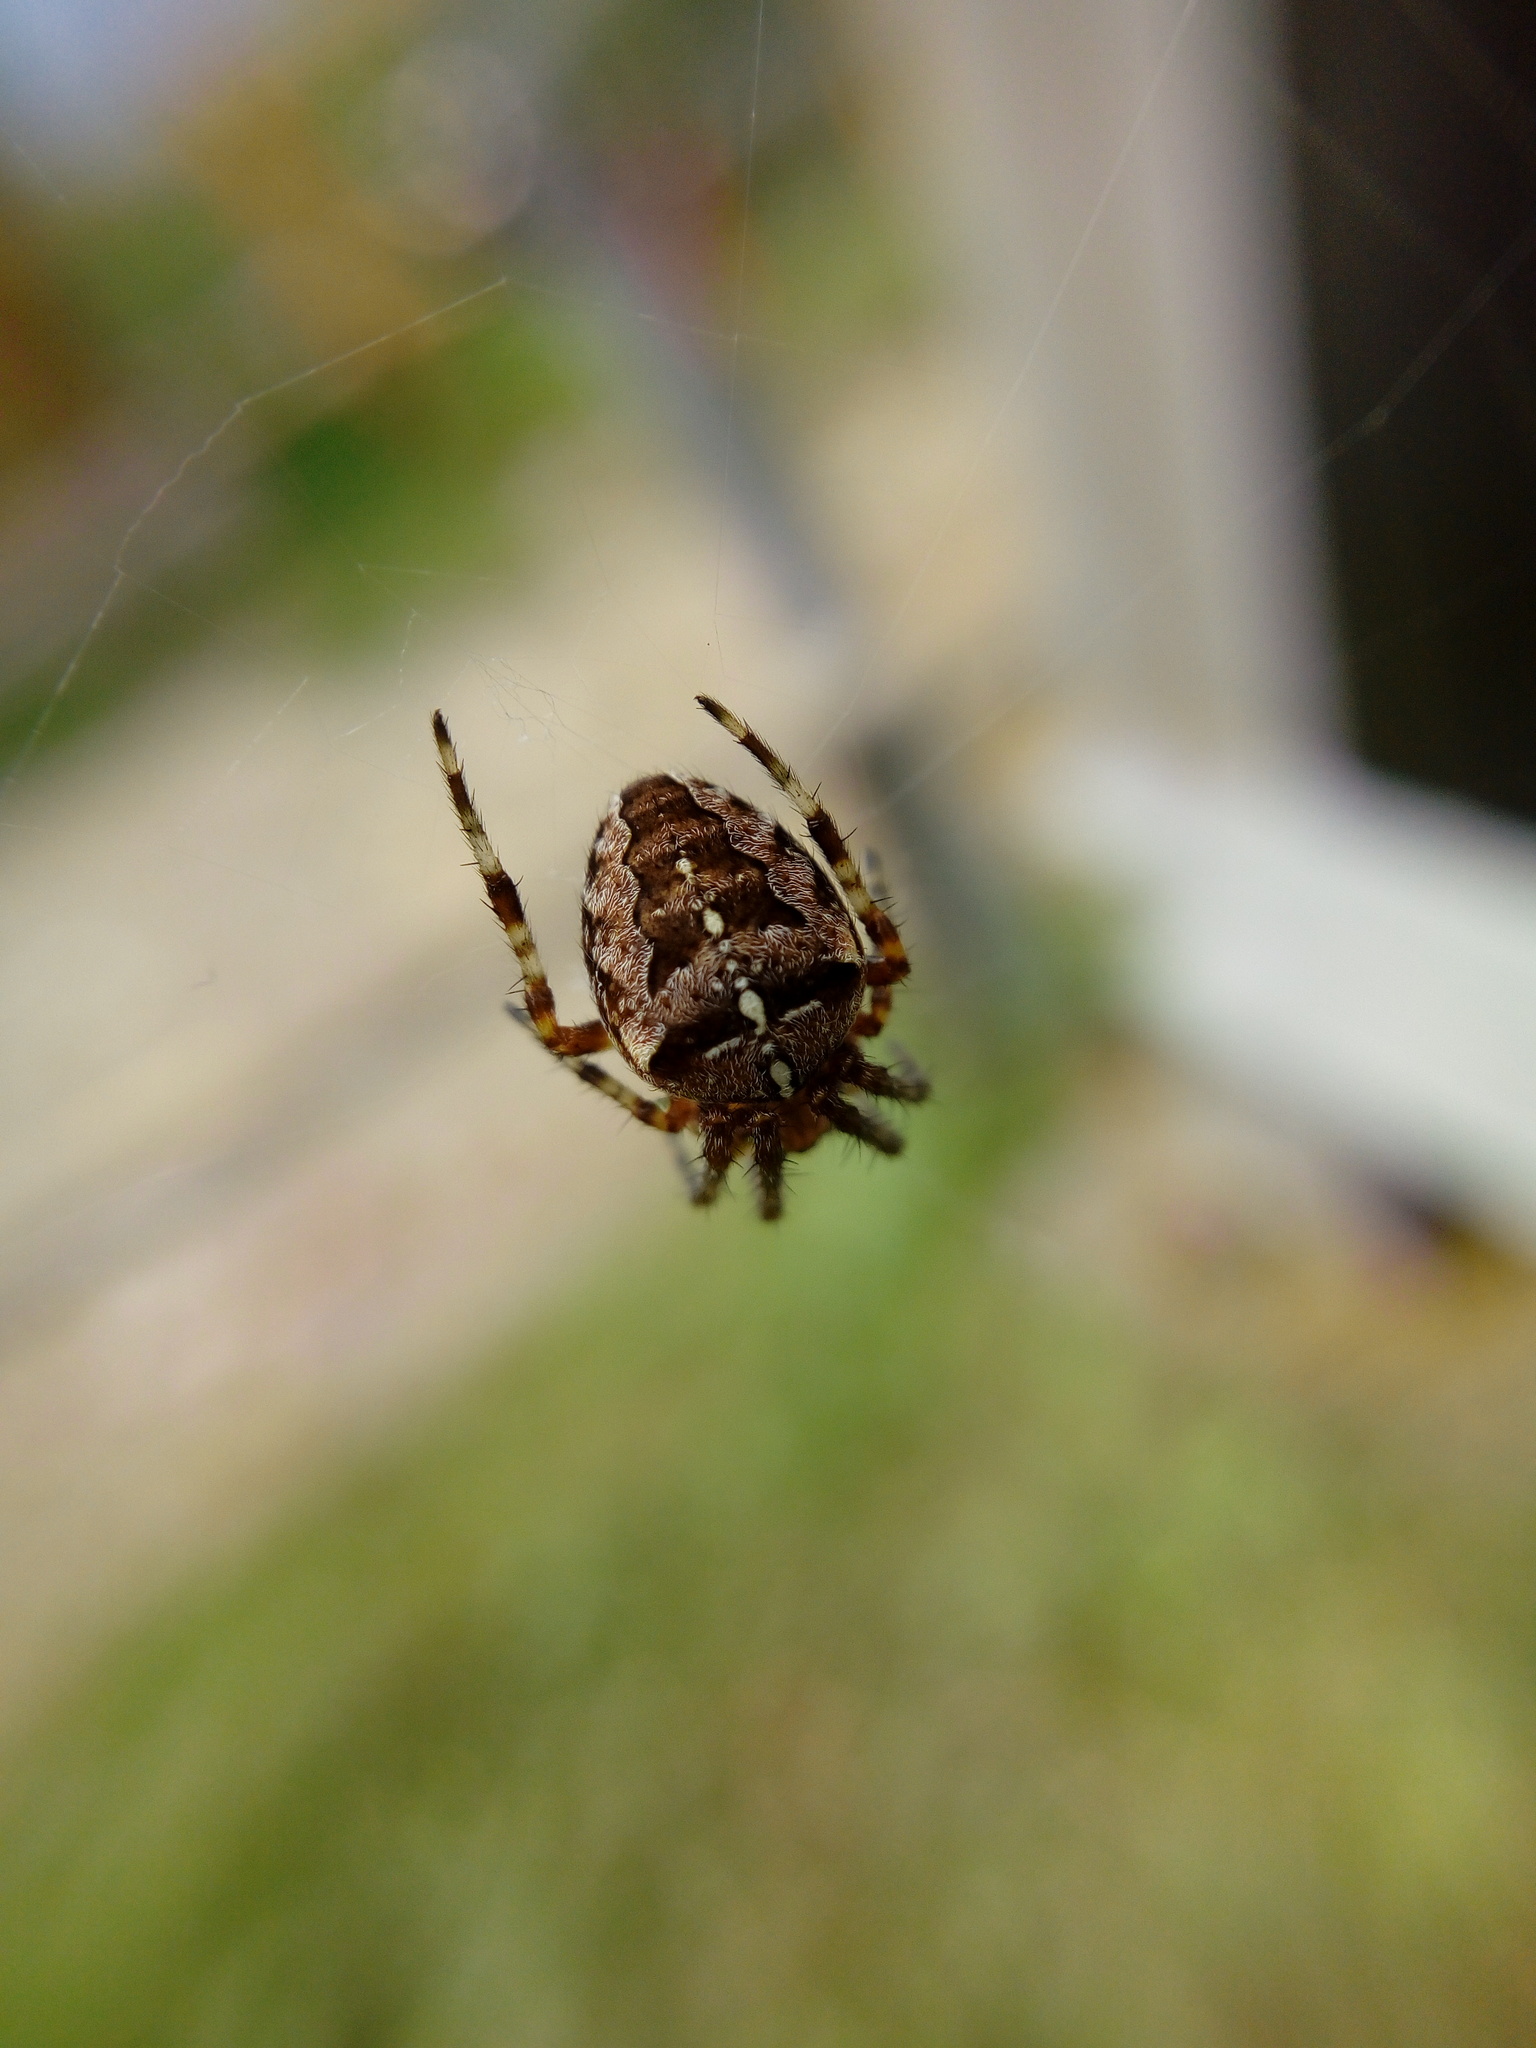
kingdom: Animalia
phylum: Arthropoda
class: Arachnida
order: Araneae
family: Araneidae
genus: Araneus
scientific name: Araneus diadematus
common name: Cross orbweaver
